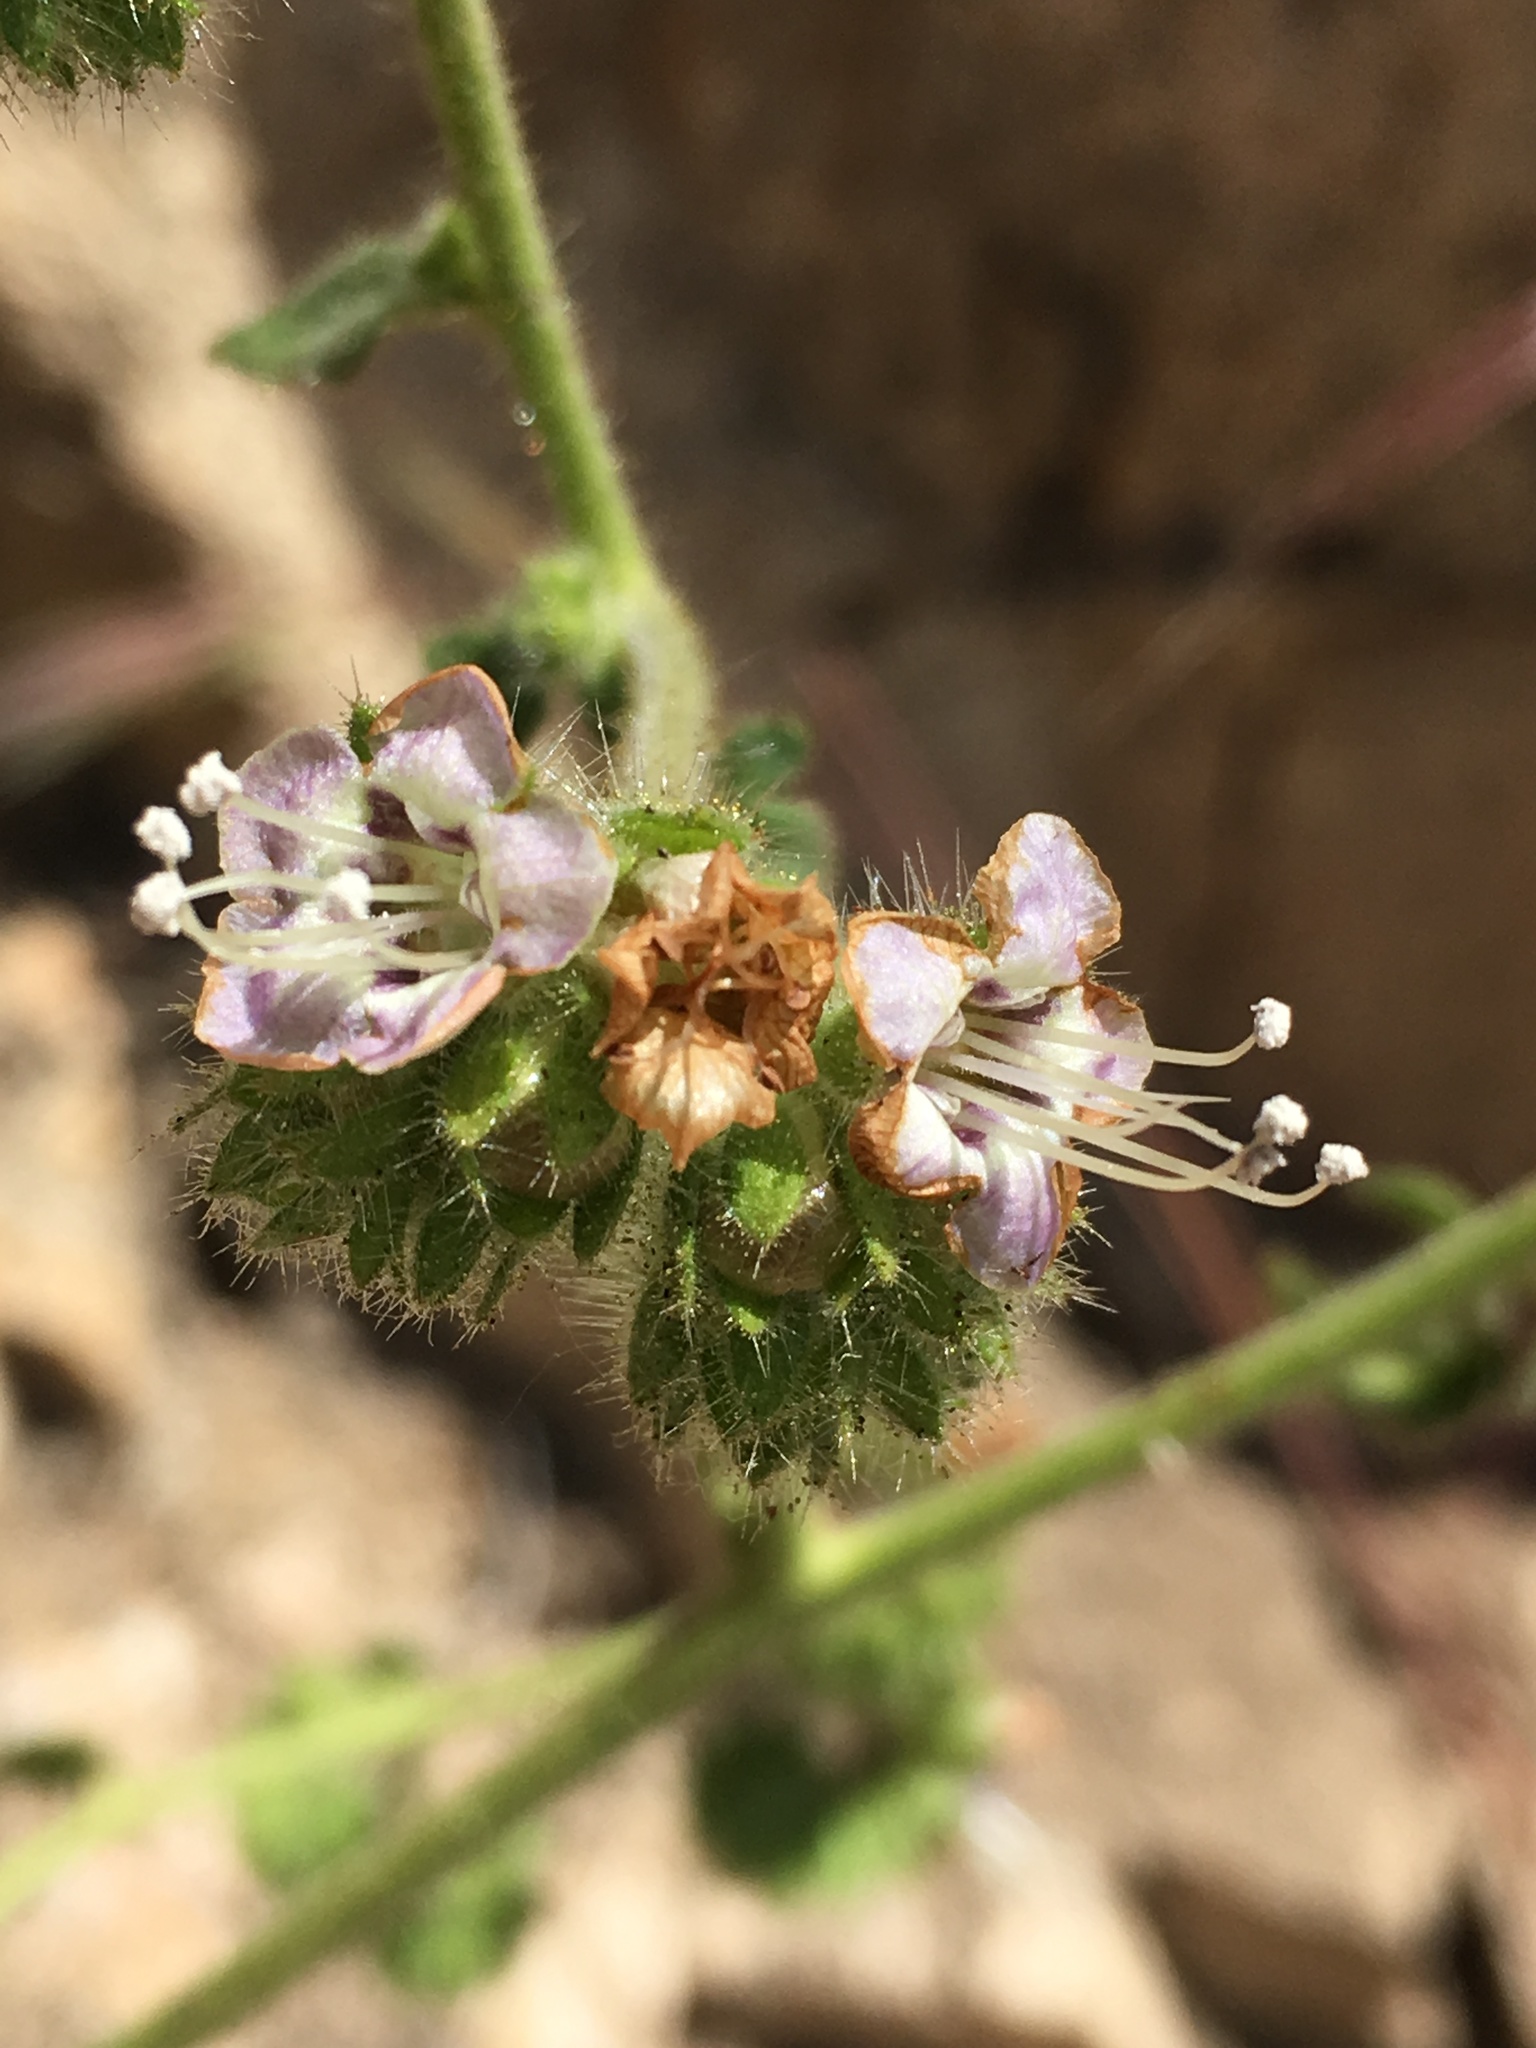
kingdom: Plantae
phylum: Tracheophyta
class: Magnoliopsida
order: Boraginales
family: Hydrophyllaceae
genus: Phacelia
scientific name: Phacelia ramosissima
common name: Branching phacelia
